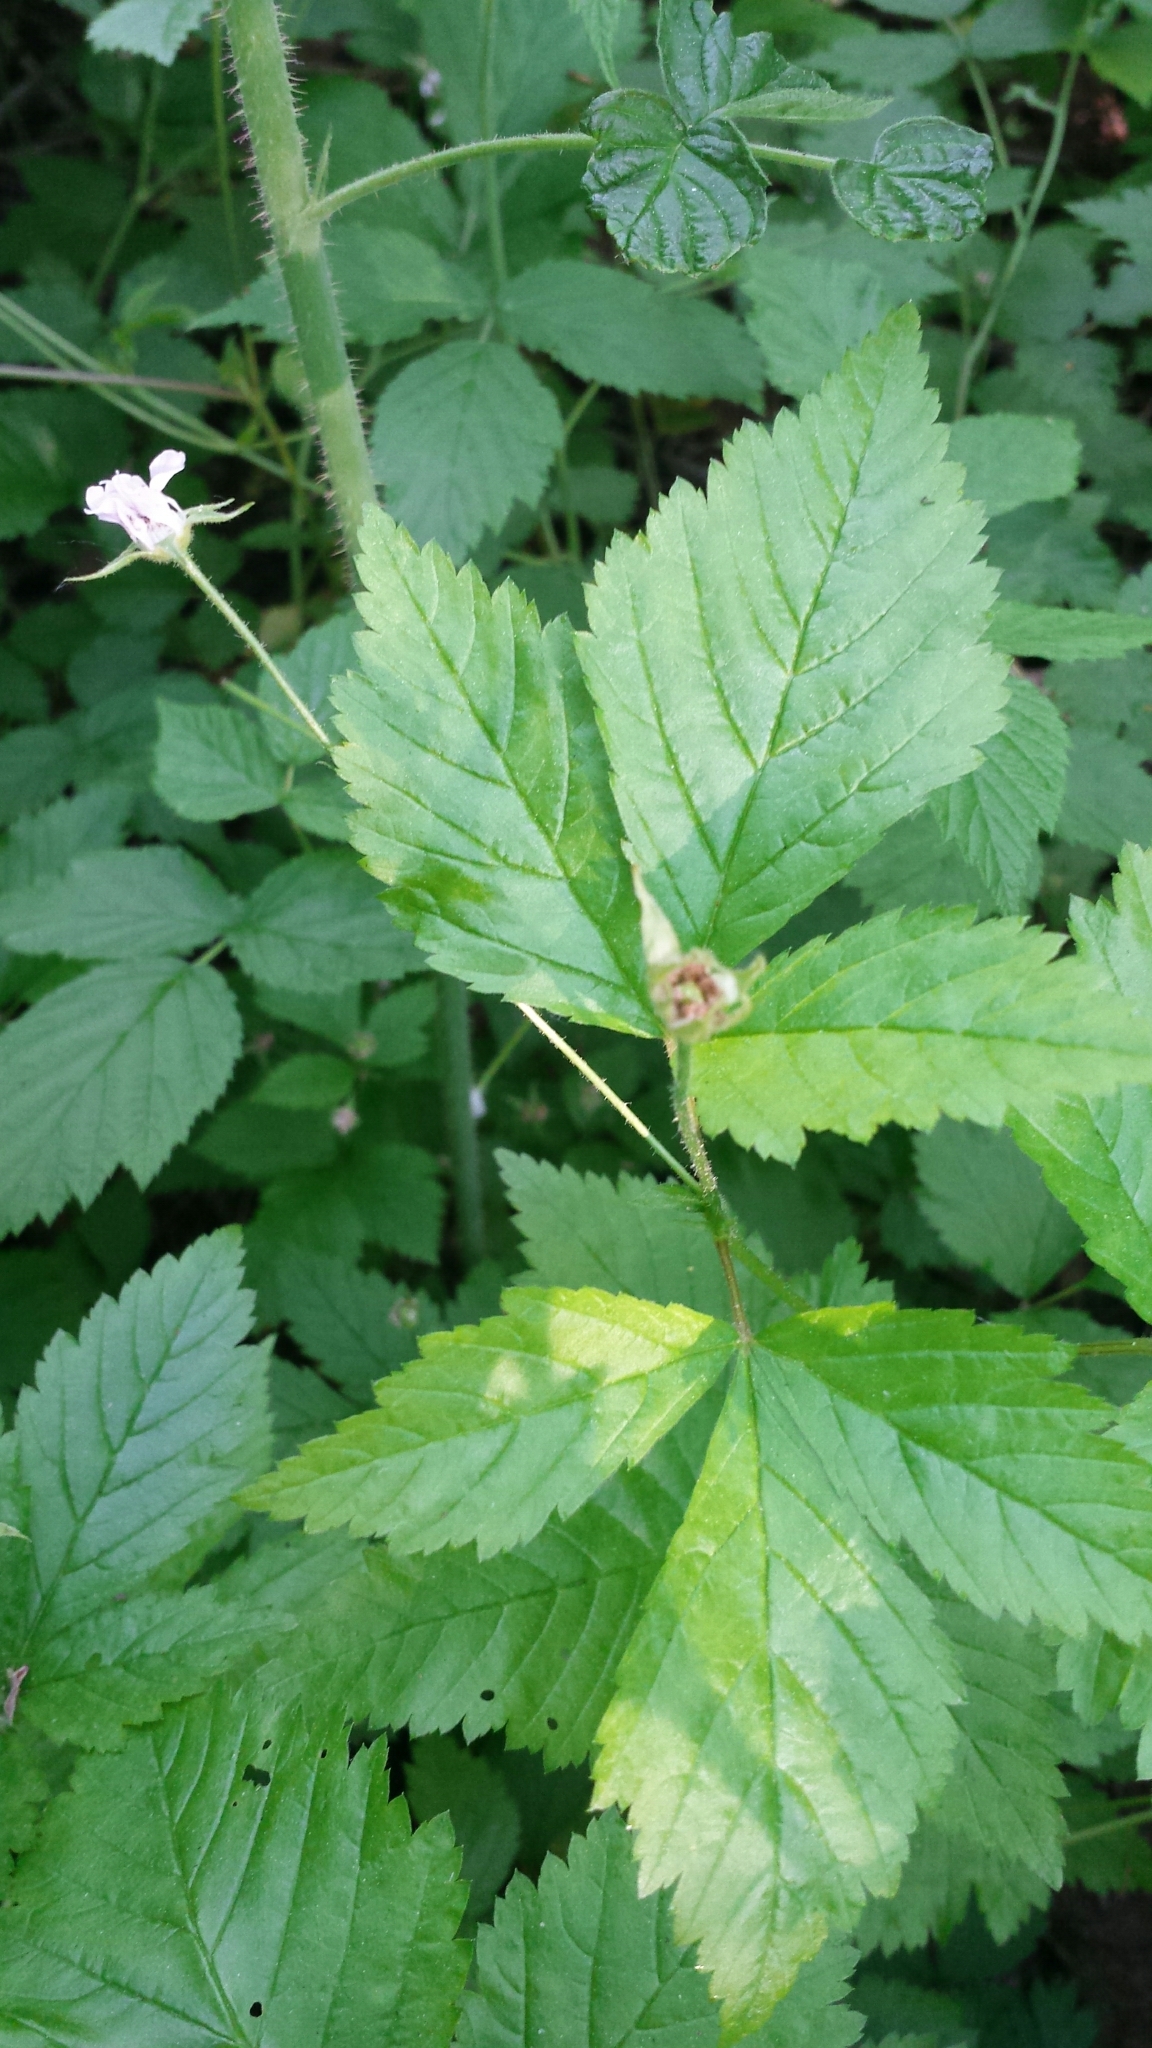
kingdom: Plantae
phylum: Tracheophyta
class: Magnoliopsida
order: Rosales
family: Rosaceae
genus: Rubus
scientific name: Rubus pubescens
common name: Dwarf raspberry
